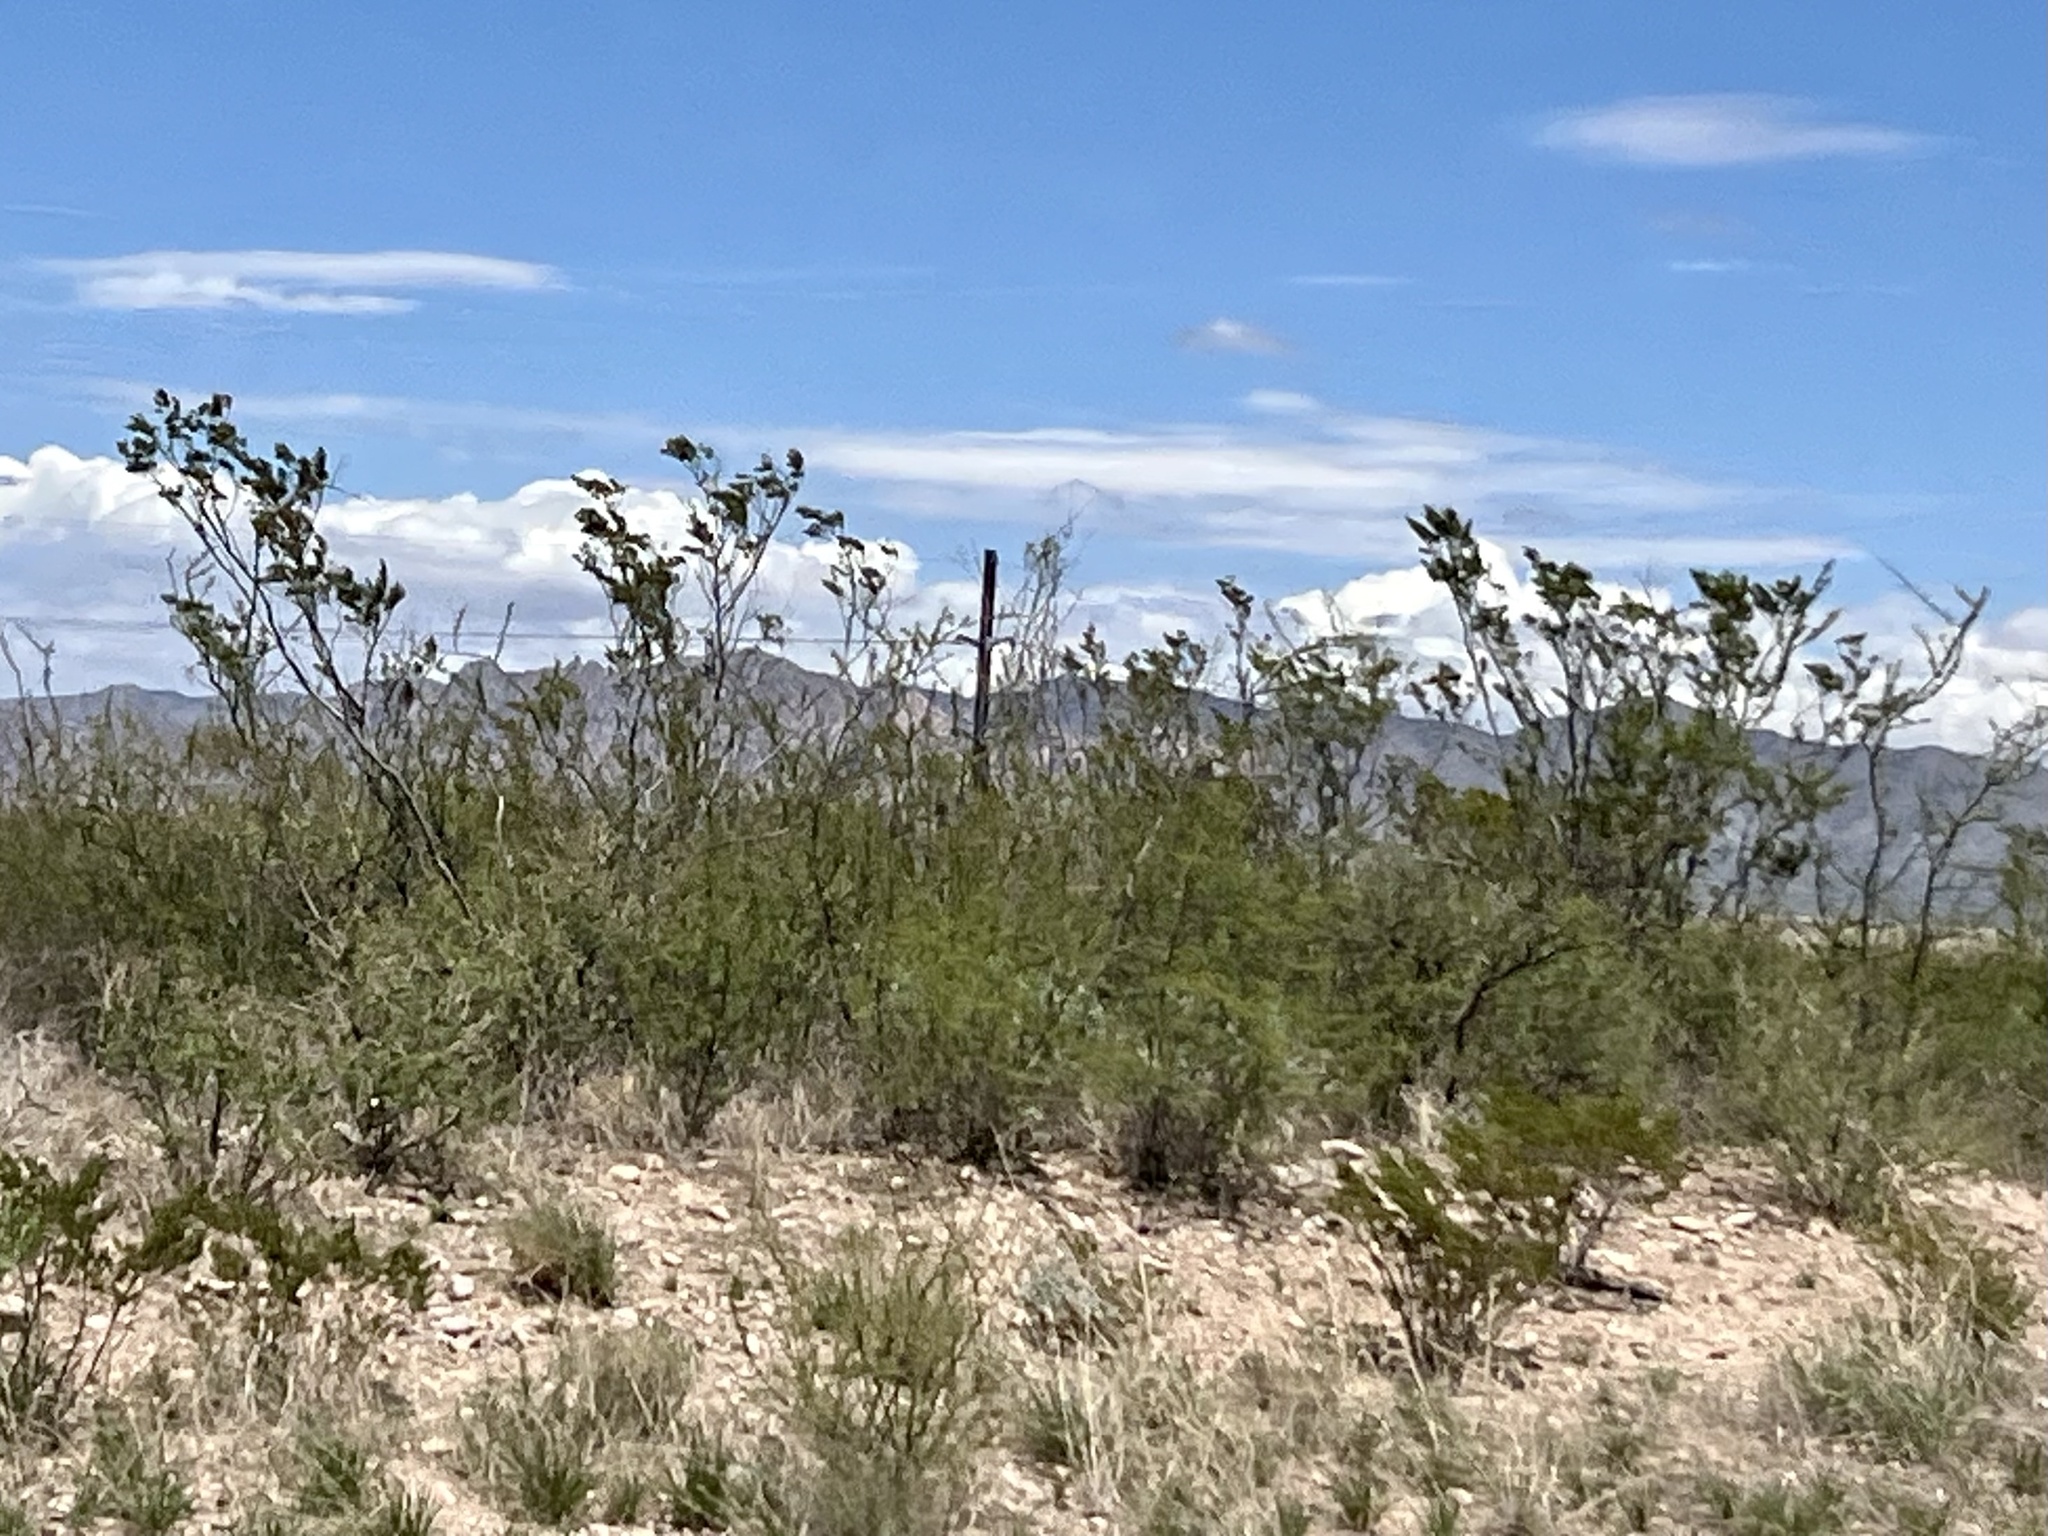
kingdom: Plantae
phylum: Tracheophyta
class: Magnoliopsida
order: Zygophyllales
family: Zygophyllaceae
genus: Larrea
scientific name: Larrea tridentata
